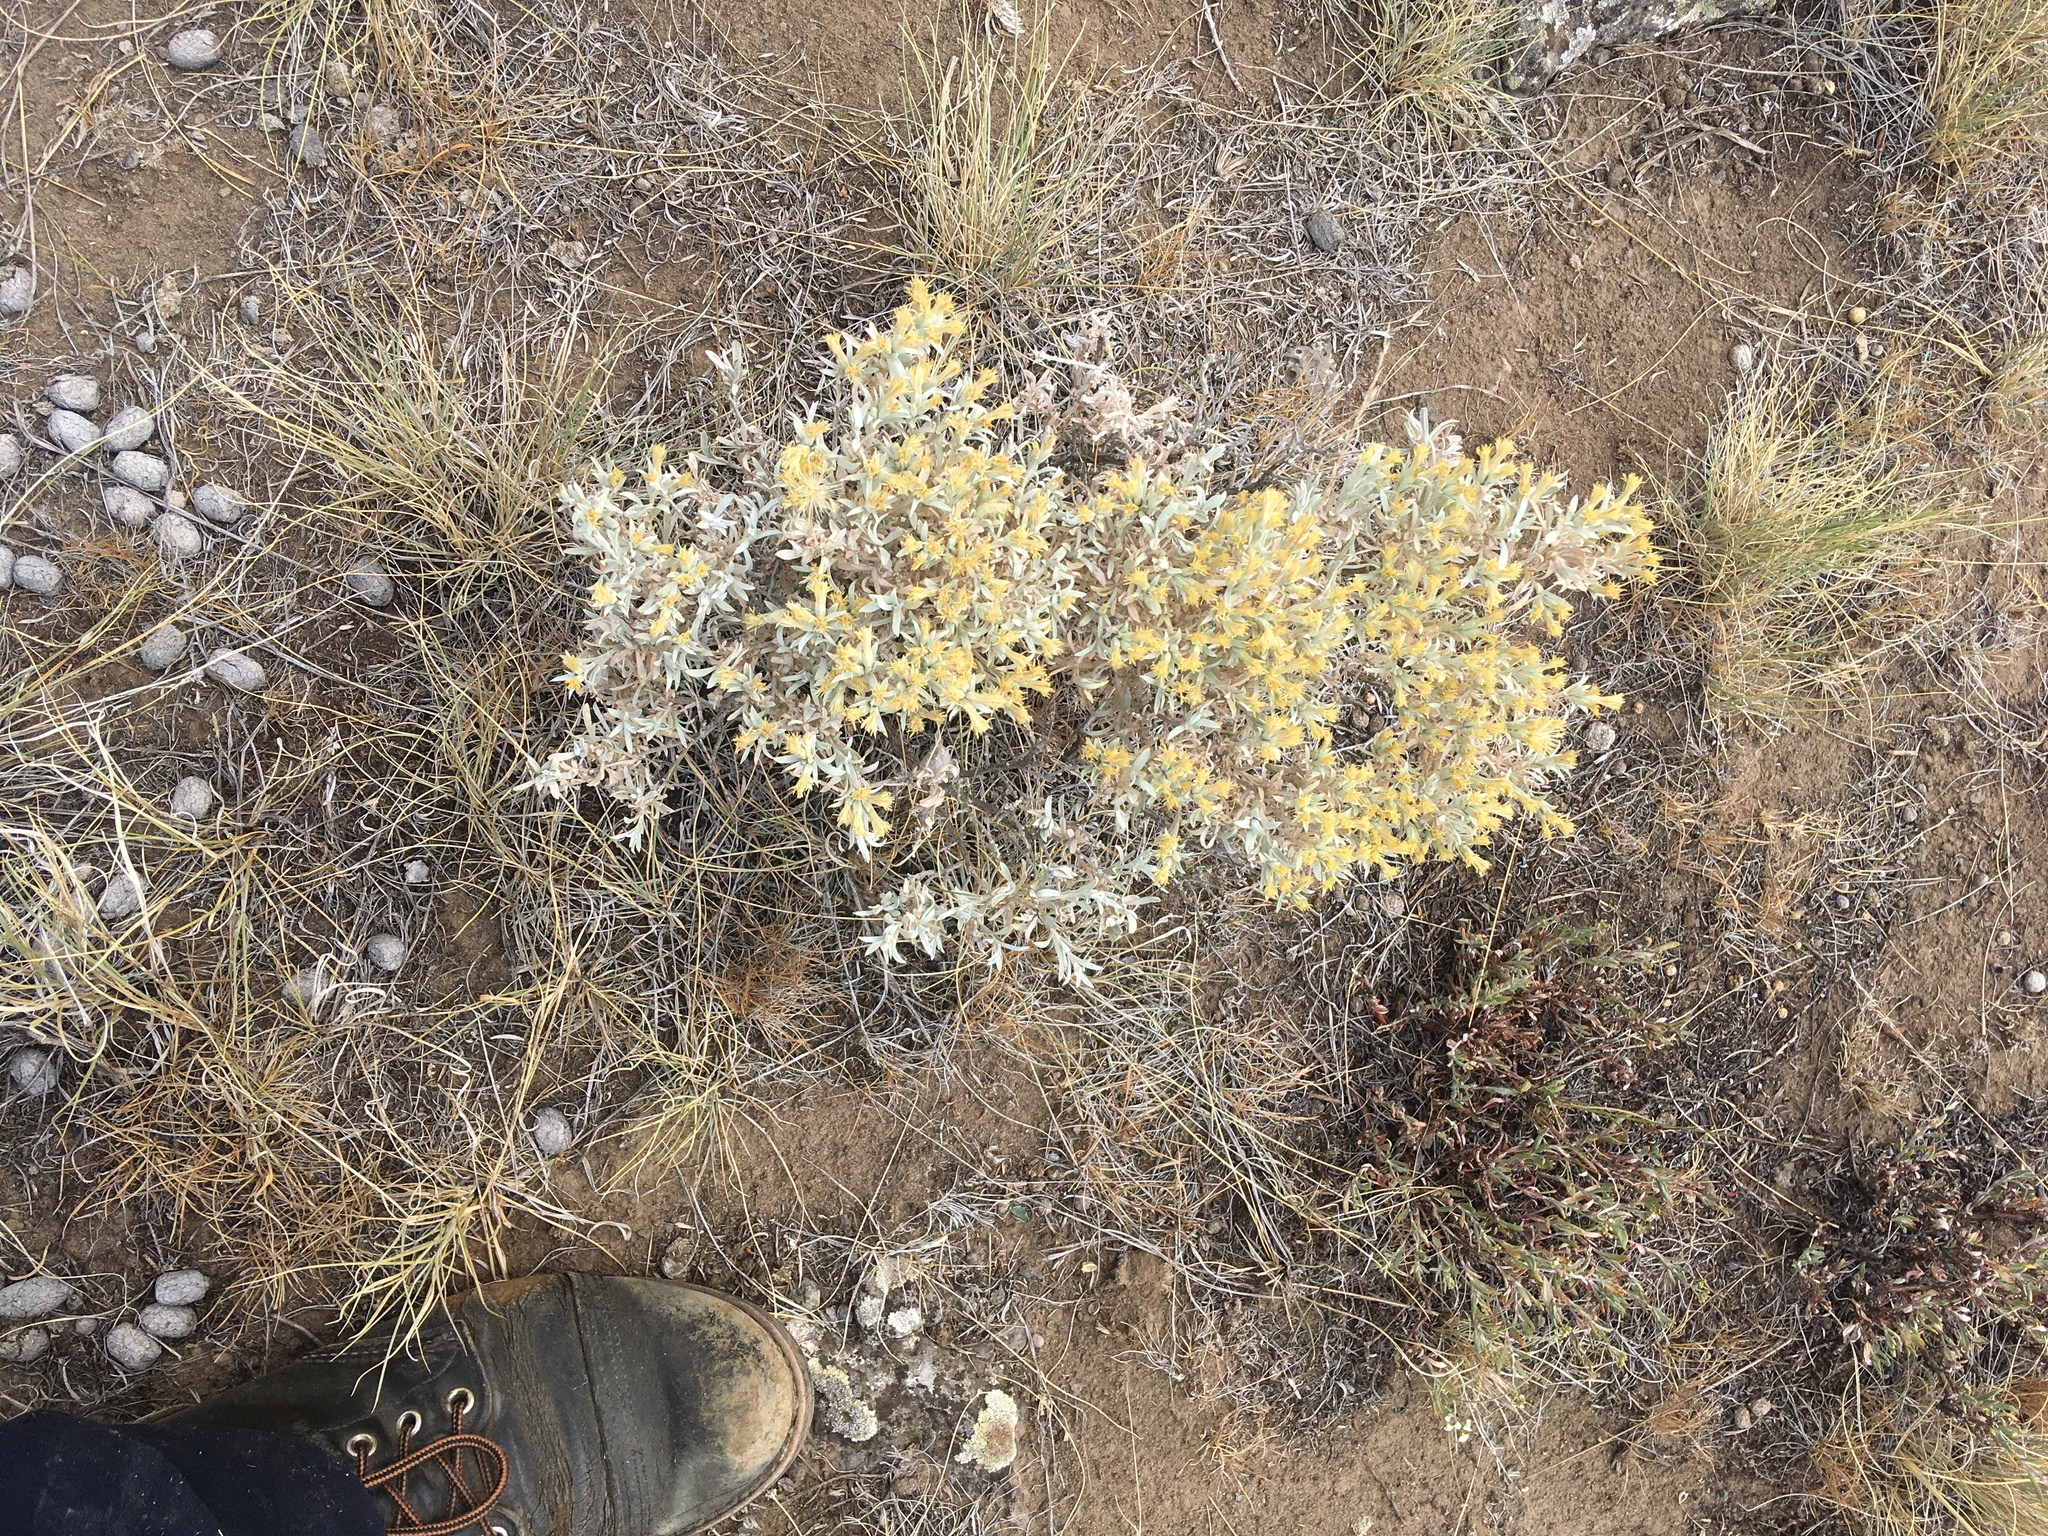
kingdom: Plantae
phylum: Tracheophyta
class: Magnoliopsida
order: Asterales
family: Asteraceae
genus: Tetradymia
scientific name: Tetradymia canescens
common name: Spineless horsebrush
